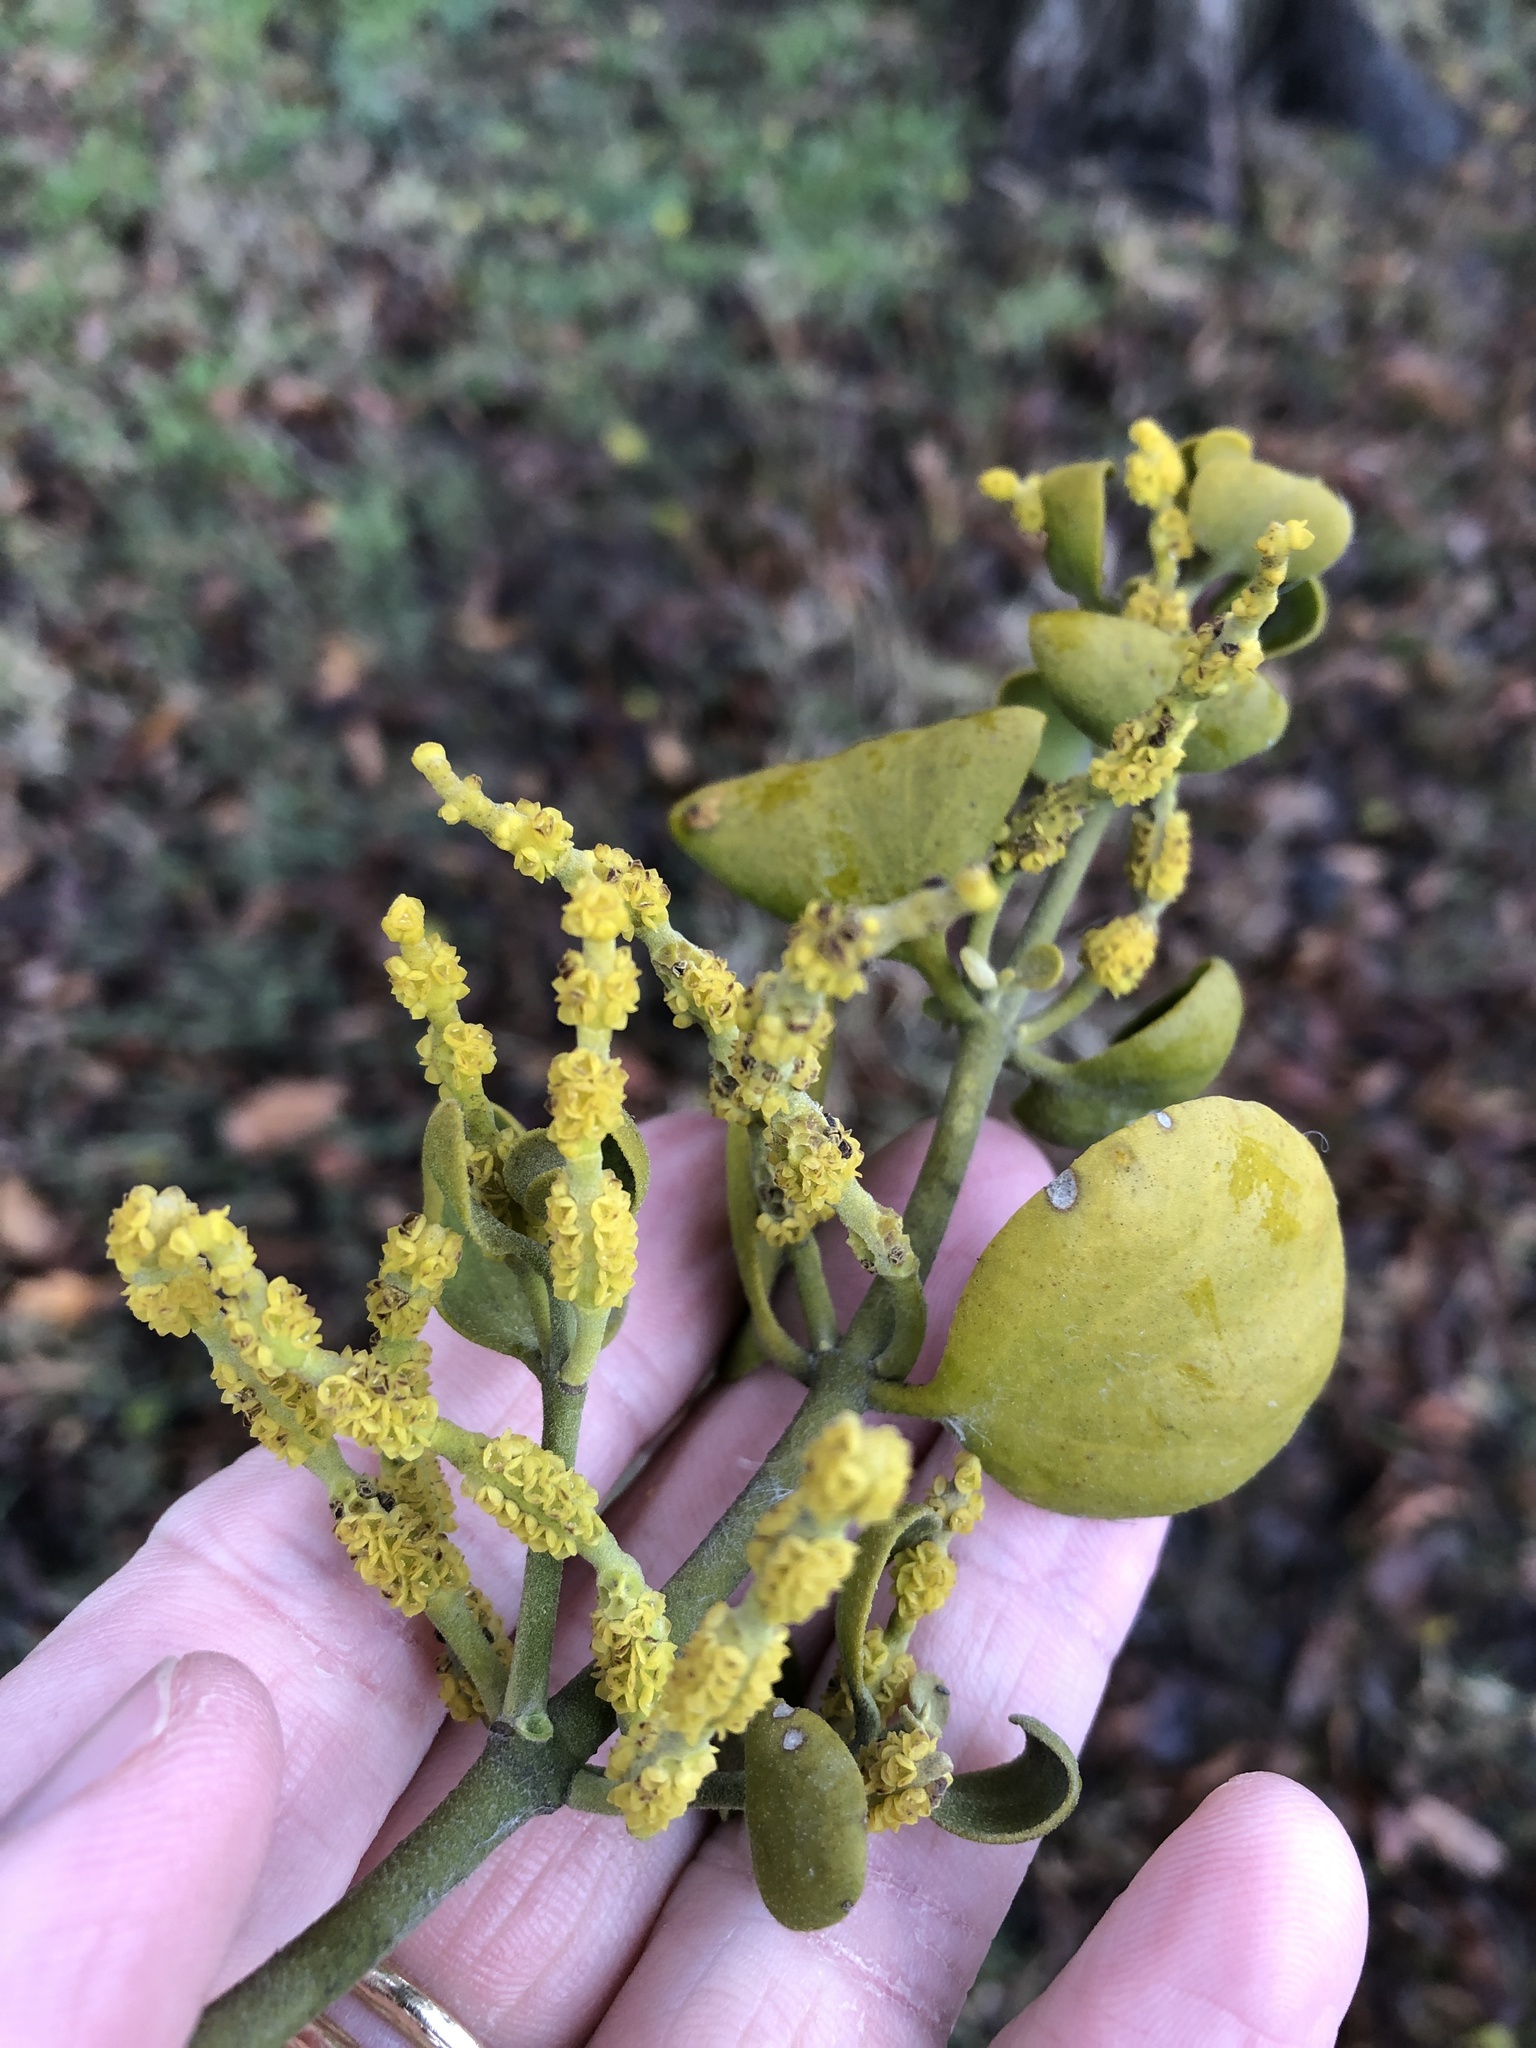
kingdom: Plantae
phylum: Tracheophyta
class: Magnoliopsida
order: Santalales
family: Viscaceae
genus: Phoradendron
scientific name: Phoradendron leucarpum
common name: Pacific mistletoe
